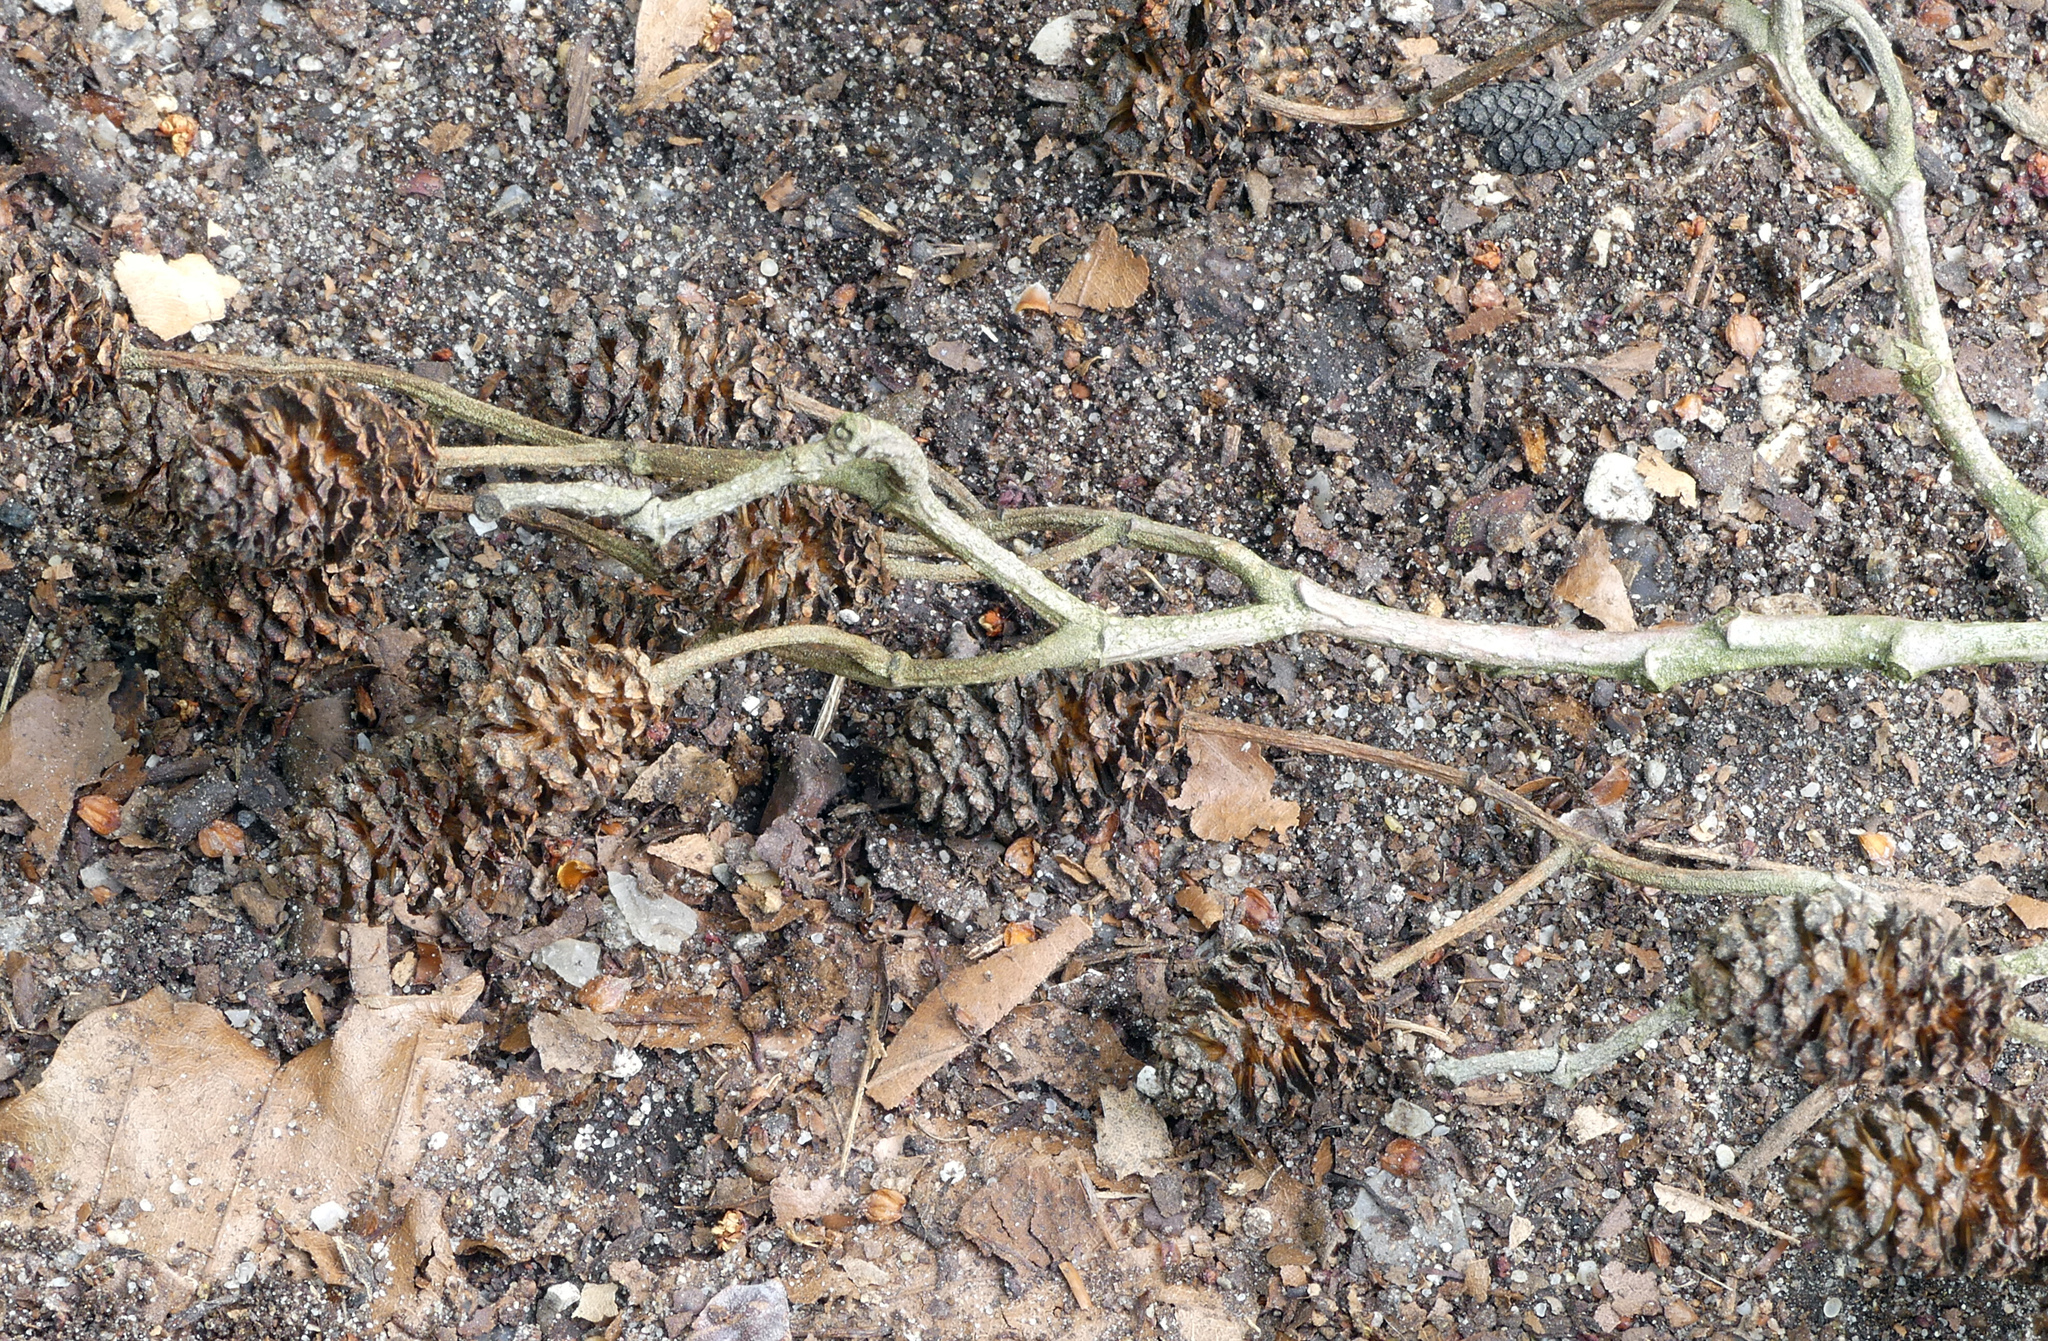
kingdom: Plantae
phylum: Tracheophyta
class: Magnoliopsida
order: Fagales
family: Betulaceae
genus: Alnus
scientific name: Alnus glutinosa
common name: Black alder
